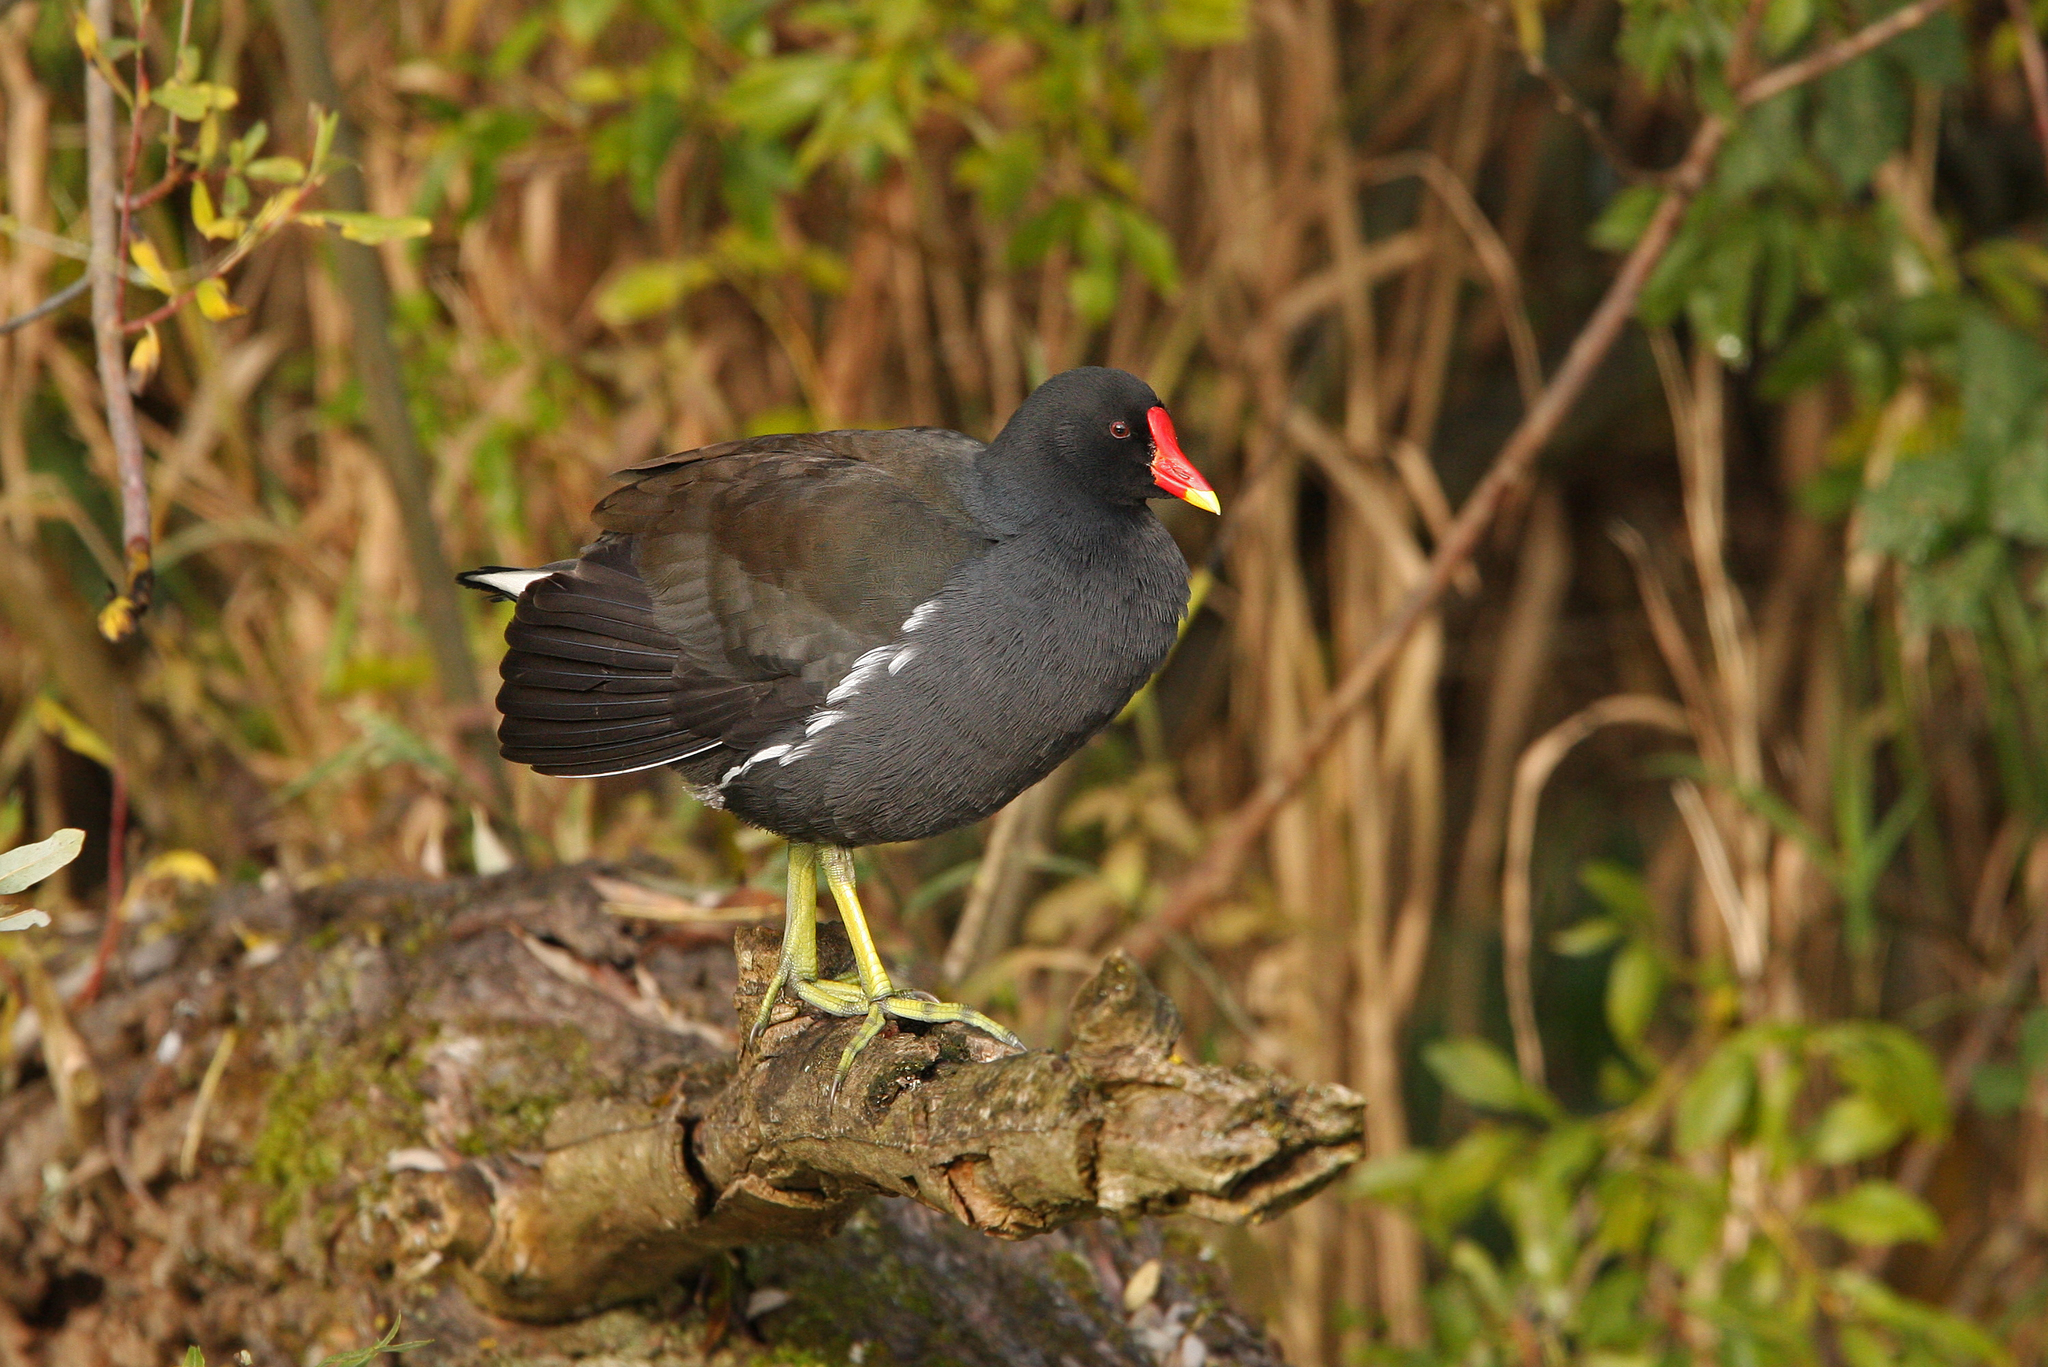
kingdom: Animalia
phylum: Chordata
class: Aves
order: Gruiformes
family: Rallidae
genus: Gallinula
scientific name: Gallinula chloropus
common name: Common moorhen
